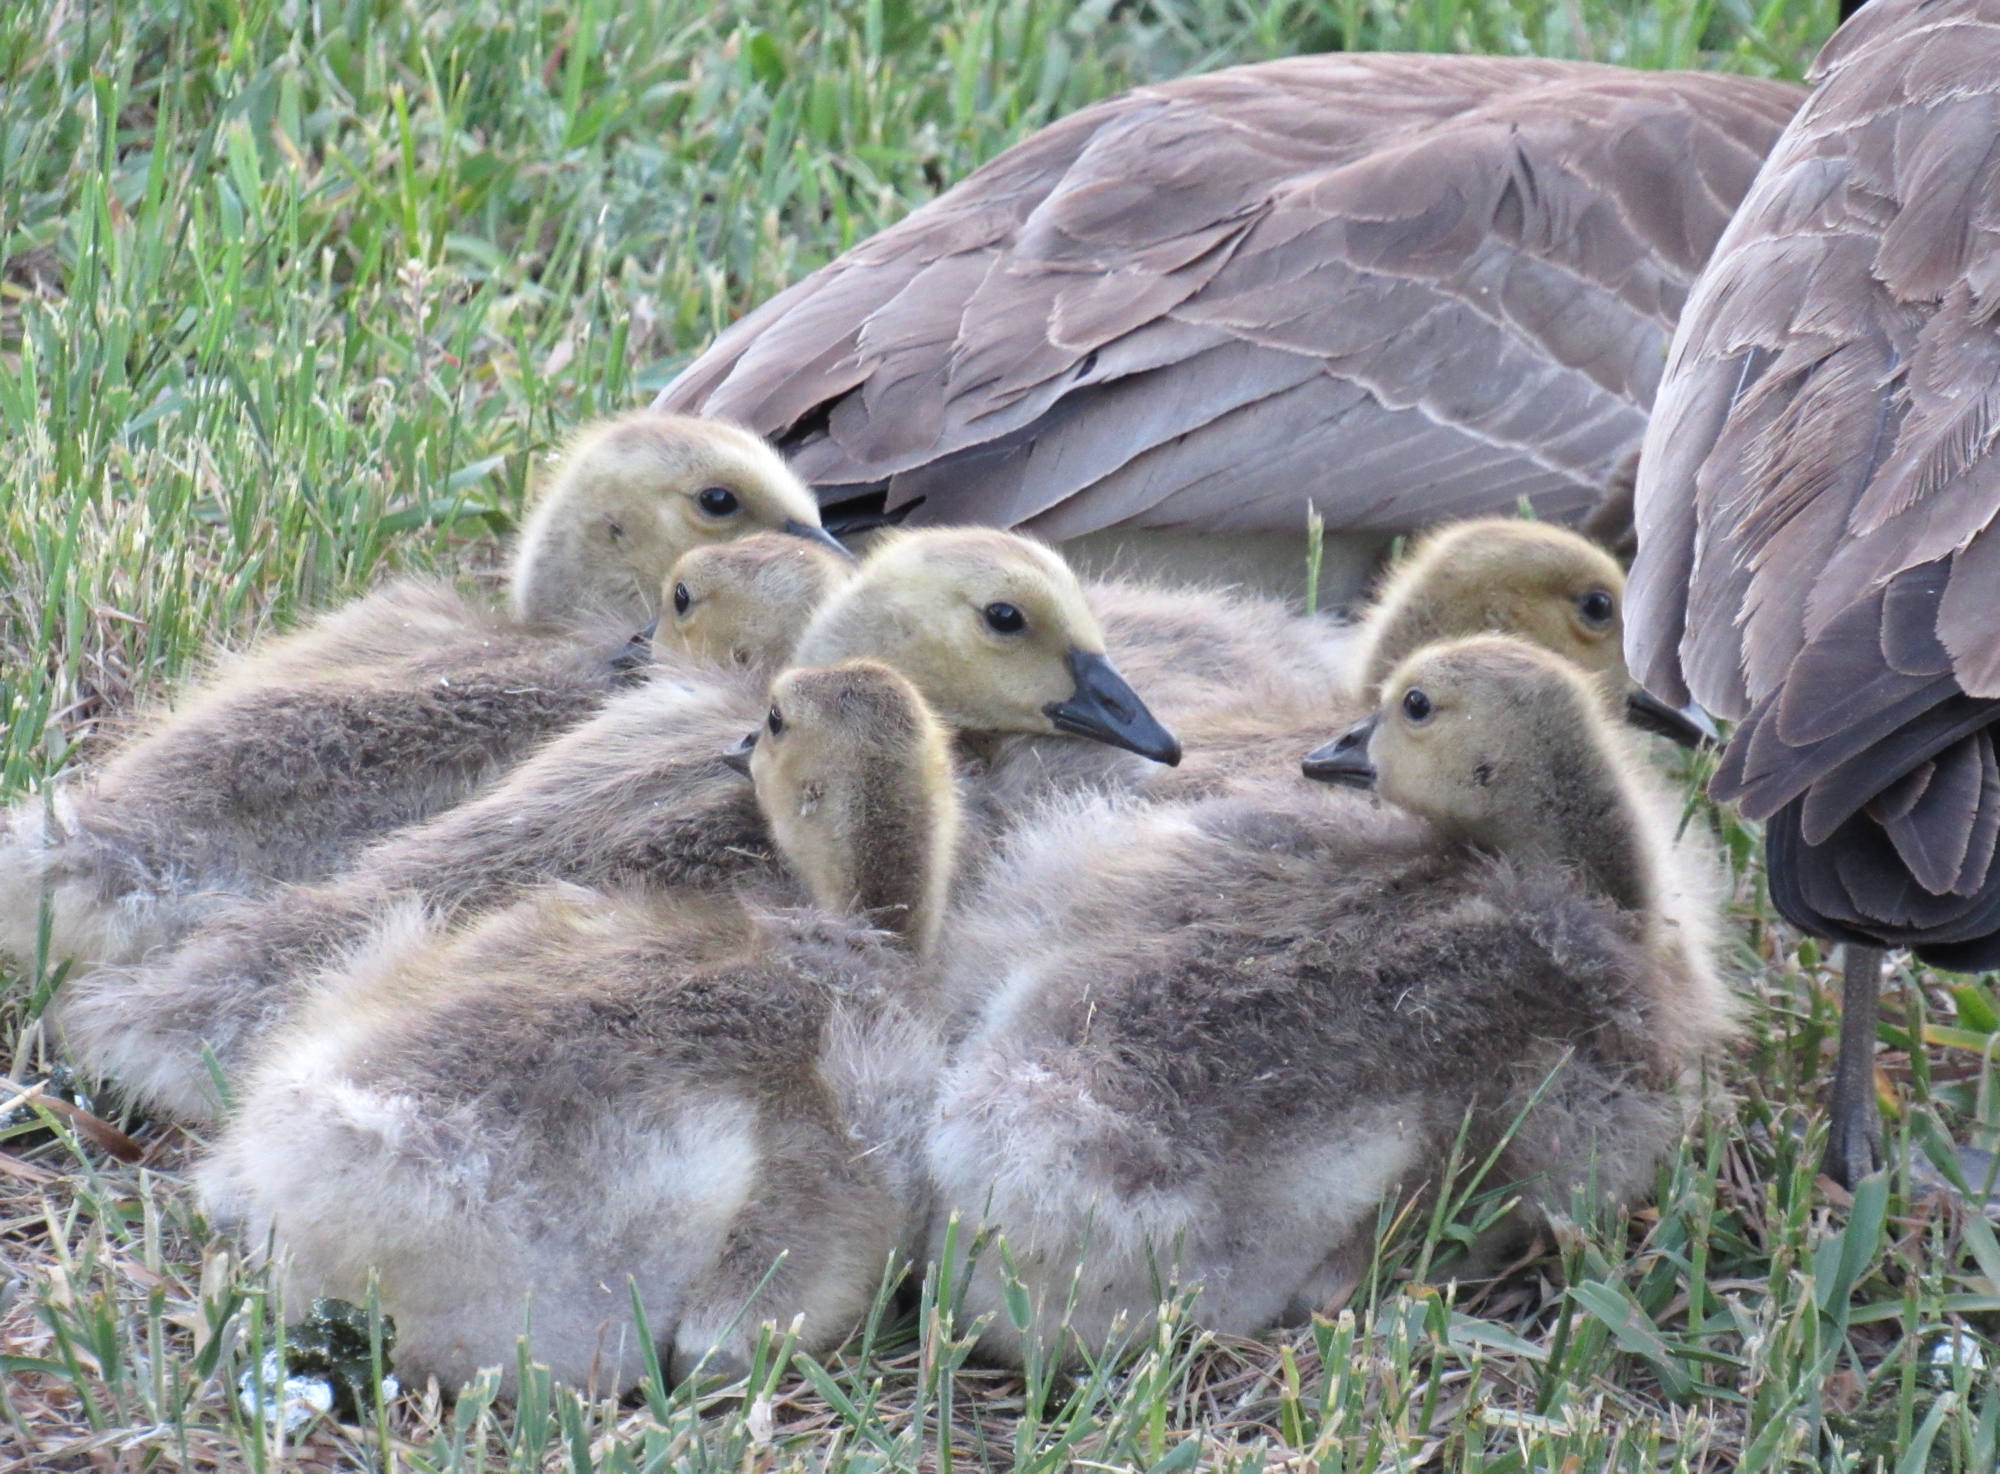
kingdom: Animalia
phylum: Chordata
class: Aves
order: Anseriformes
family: Anatidae
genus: Branta
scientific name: Branta canadensis
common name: Canada goose
